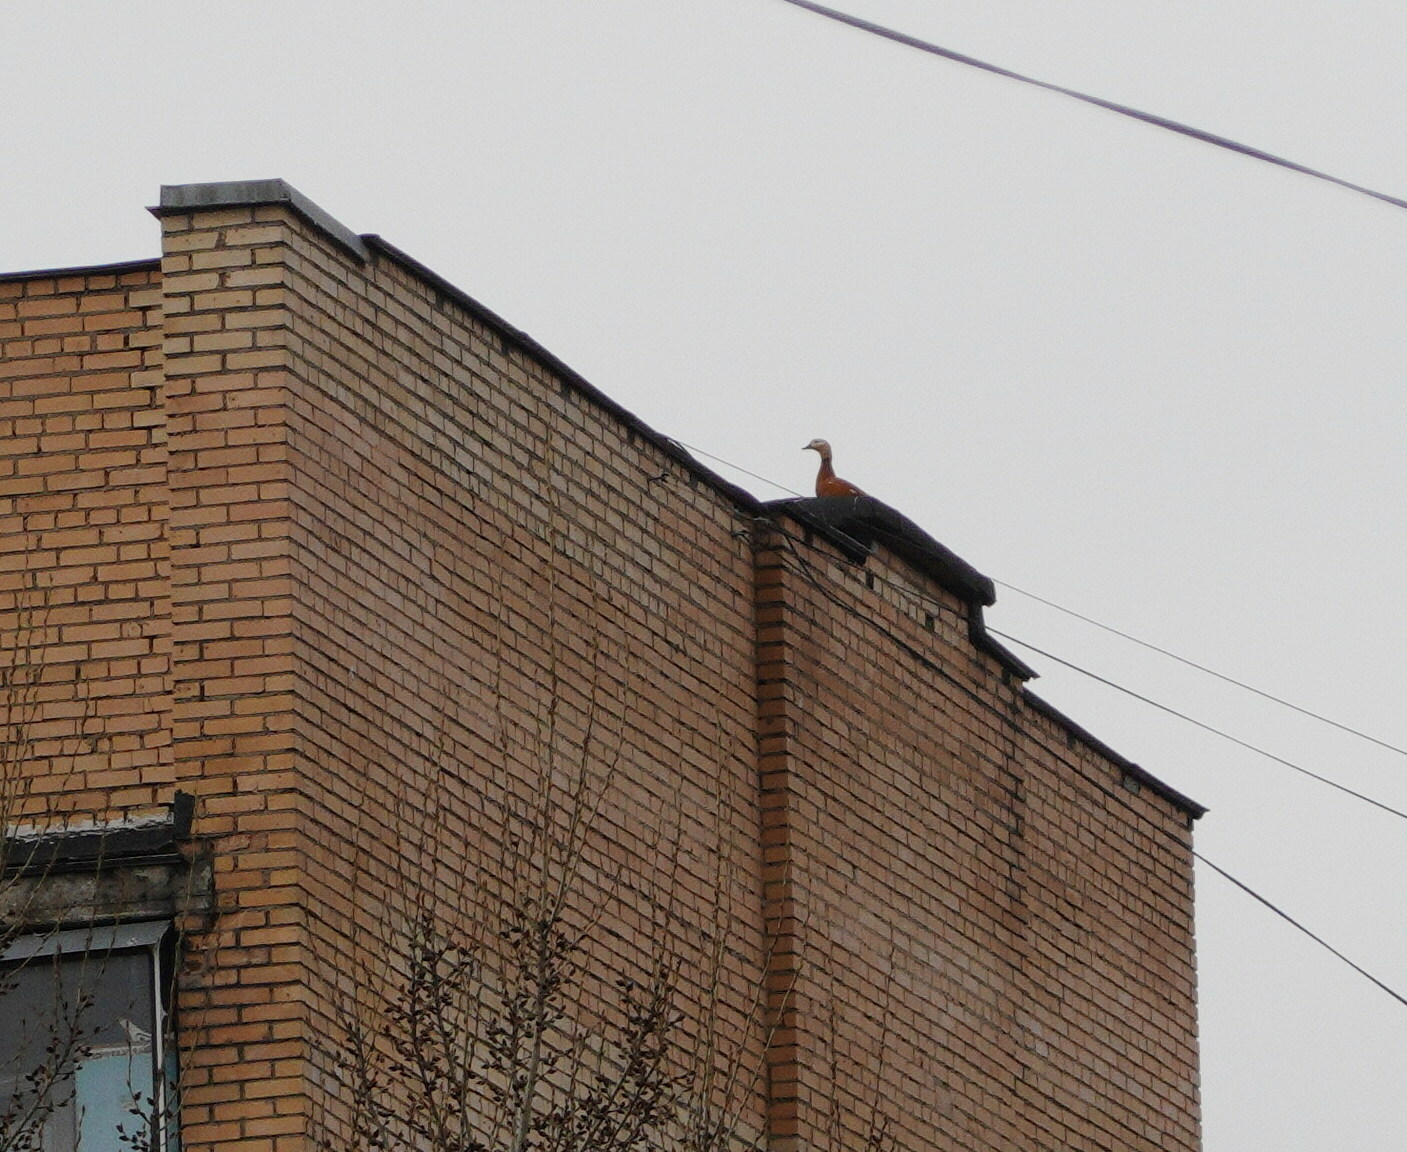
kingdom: Animalia
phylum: Chordata
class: Aves
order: Anseriformes
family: Anatidae
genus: Tadorna
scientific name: Tadorna ferruginea
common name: Ruddy shelduck
